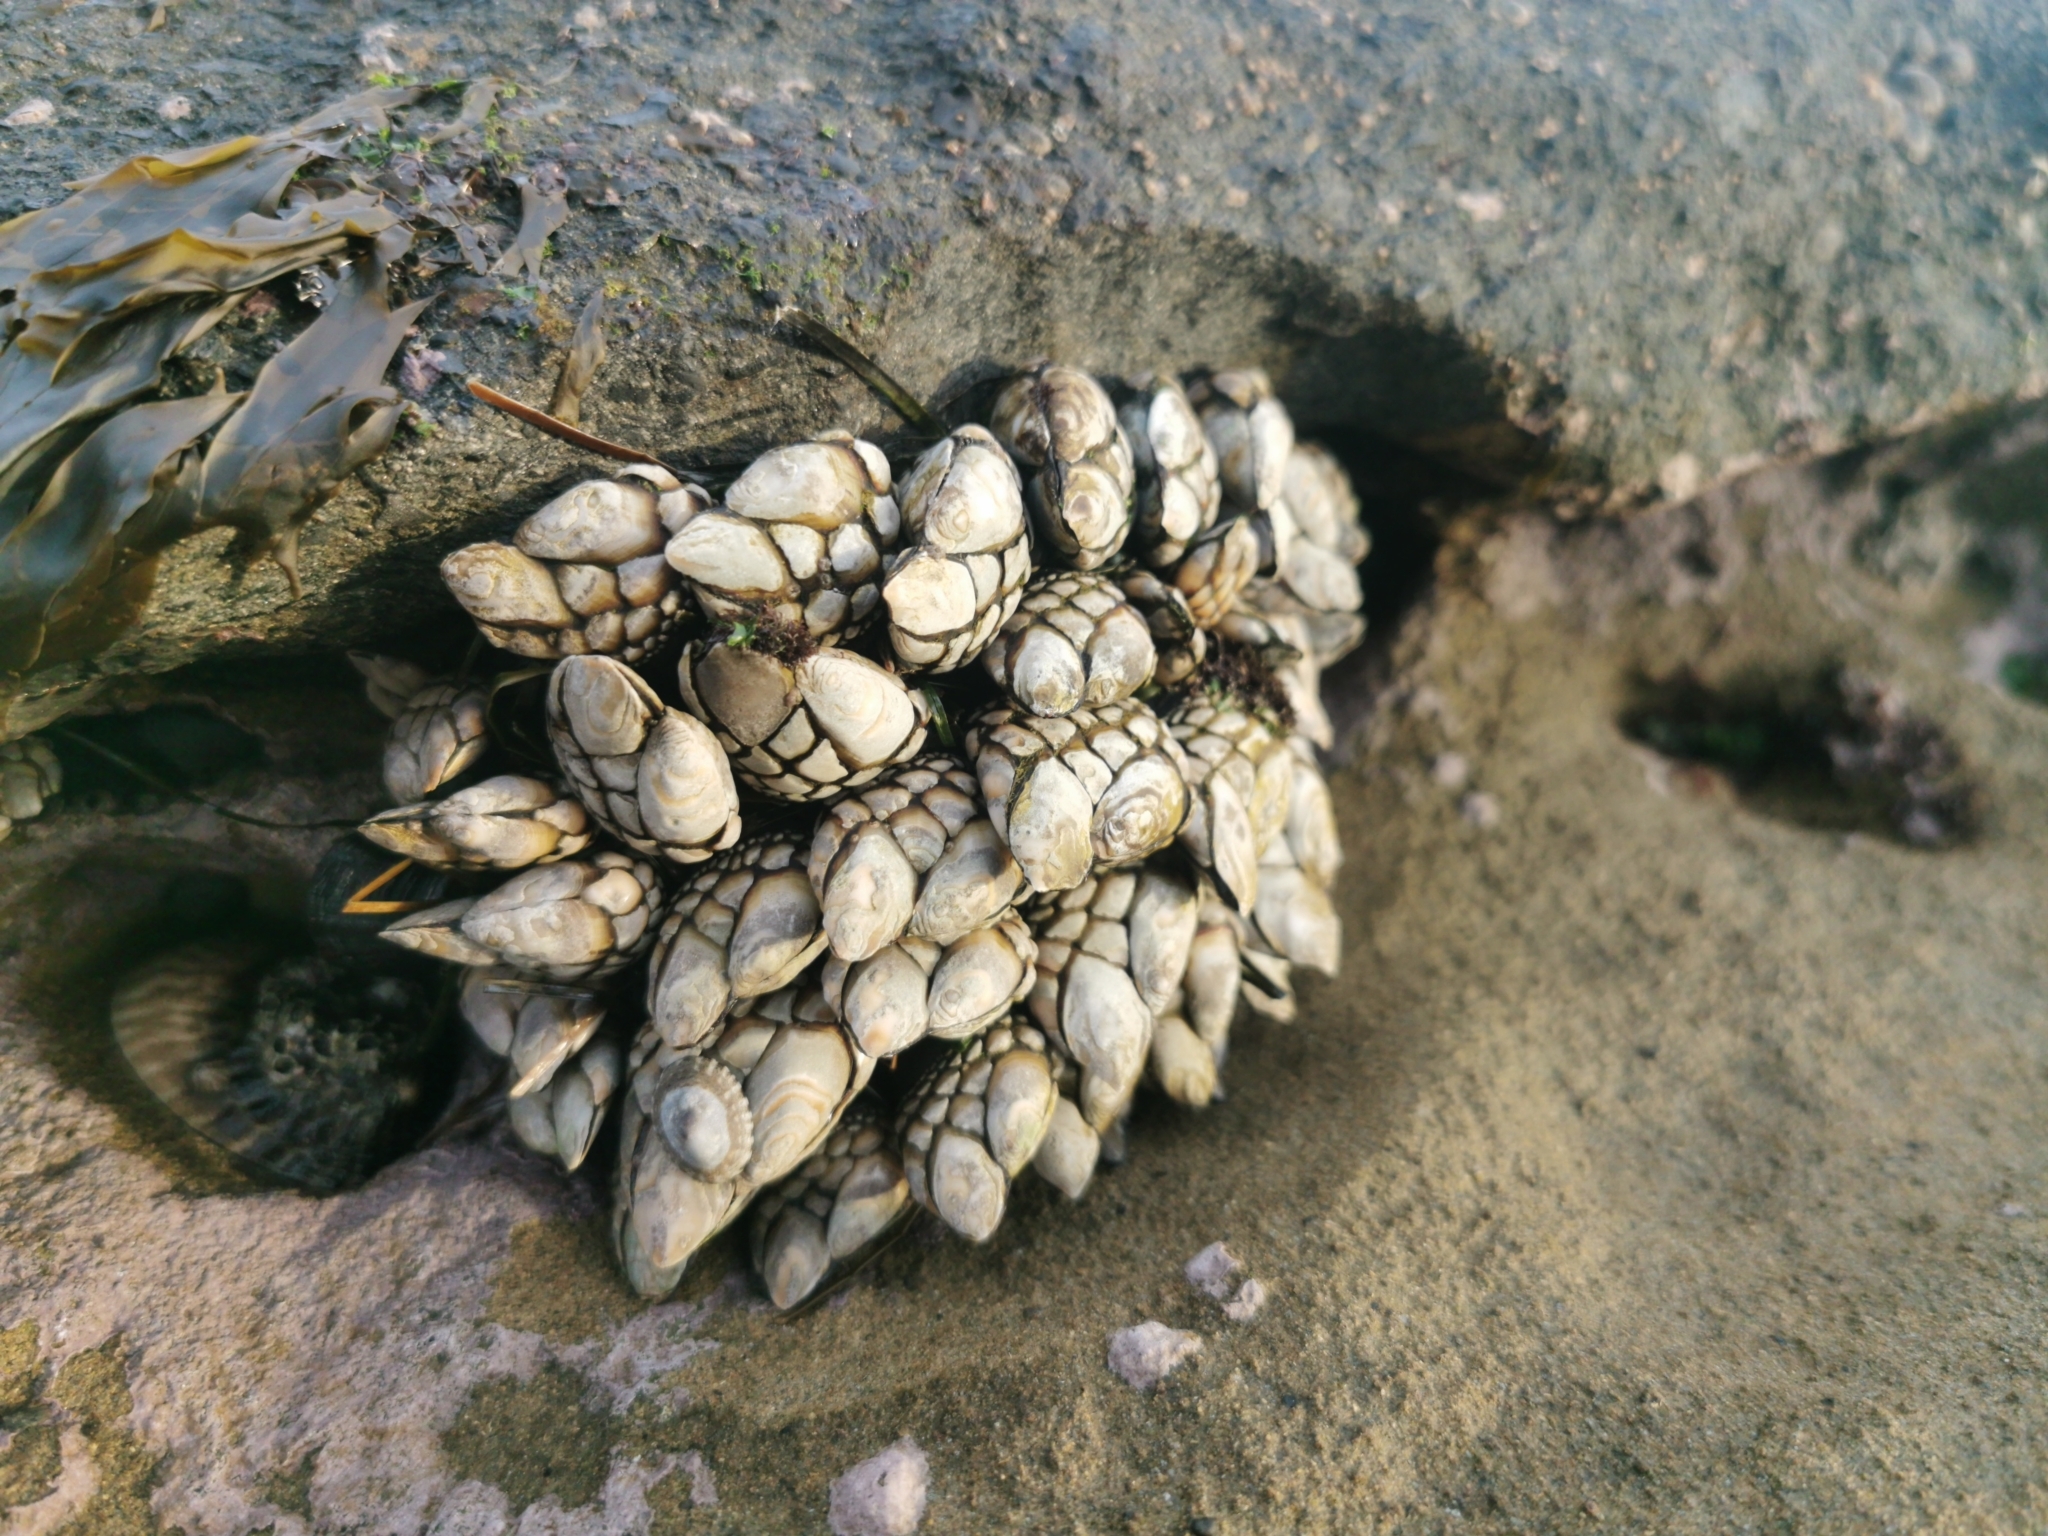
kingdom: Animalia
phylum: Arthropoda
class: Maxillopoda
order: Pedunculata
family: Pollicipedidae
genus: Pollicipes
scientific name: Pollicipes polymerus
